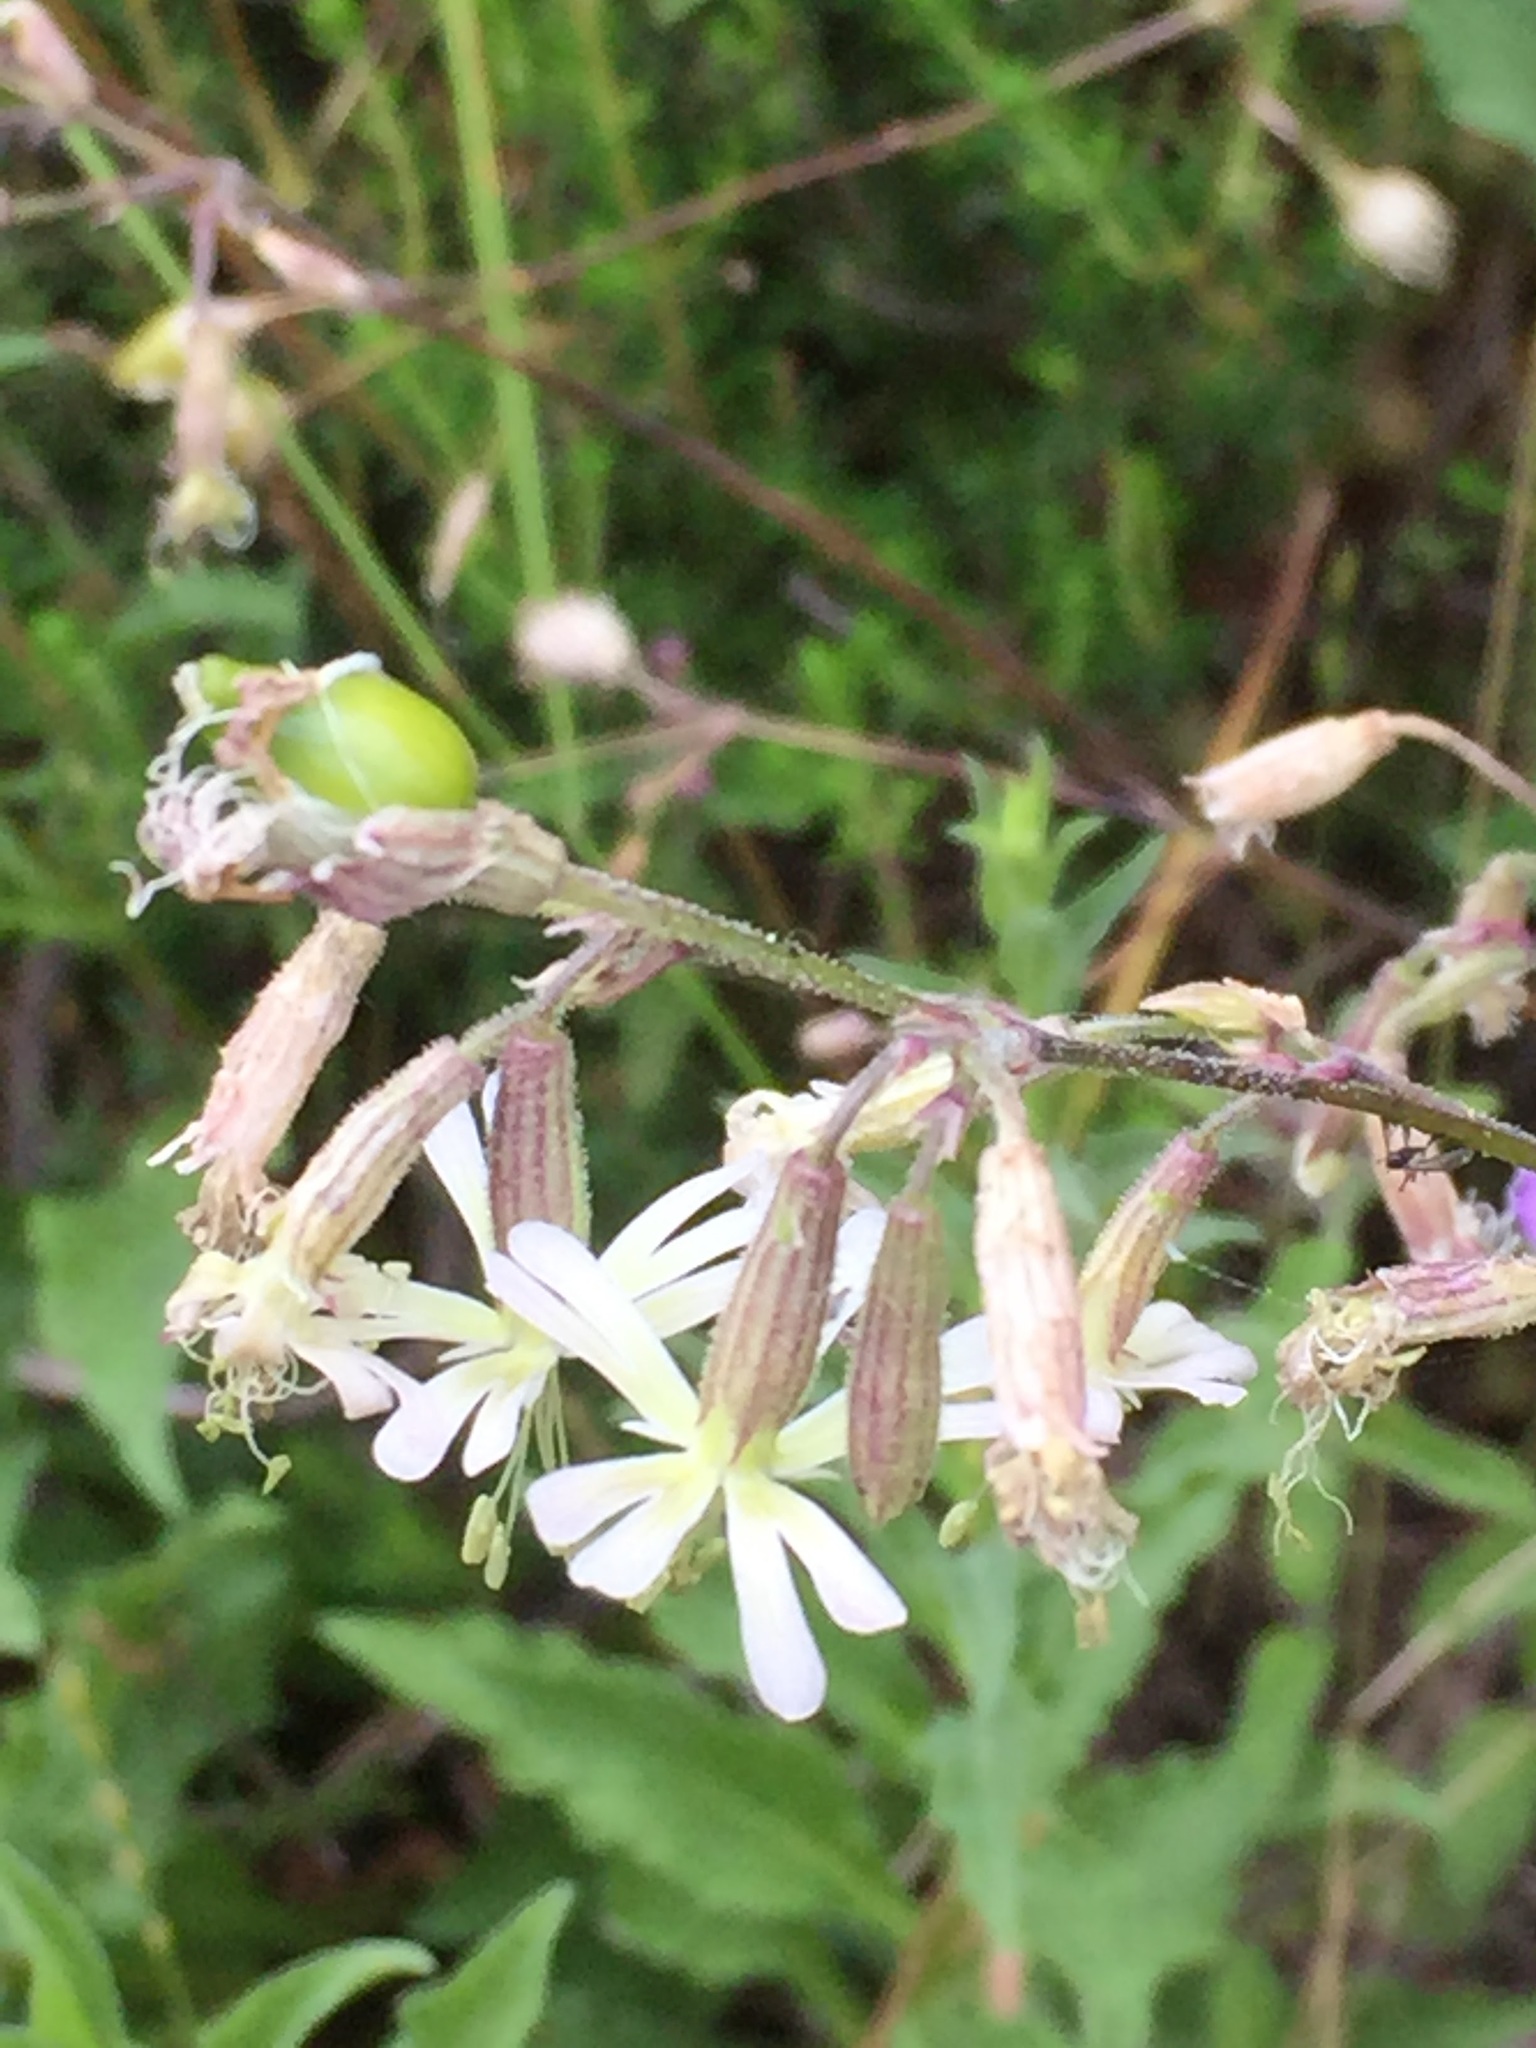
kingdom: Plantae
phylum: Tracheophyta
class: Magnoliopsida
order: Caryophyllales
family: Caryophyllaceae
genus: Silene
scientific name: Silene nutans
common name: Nottingham catchfly
